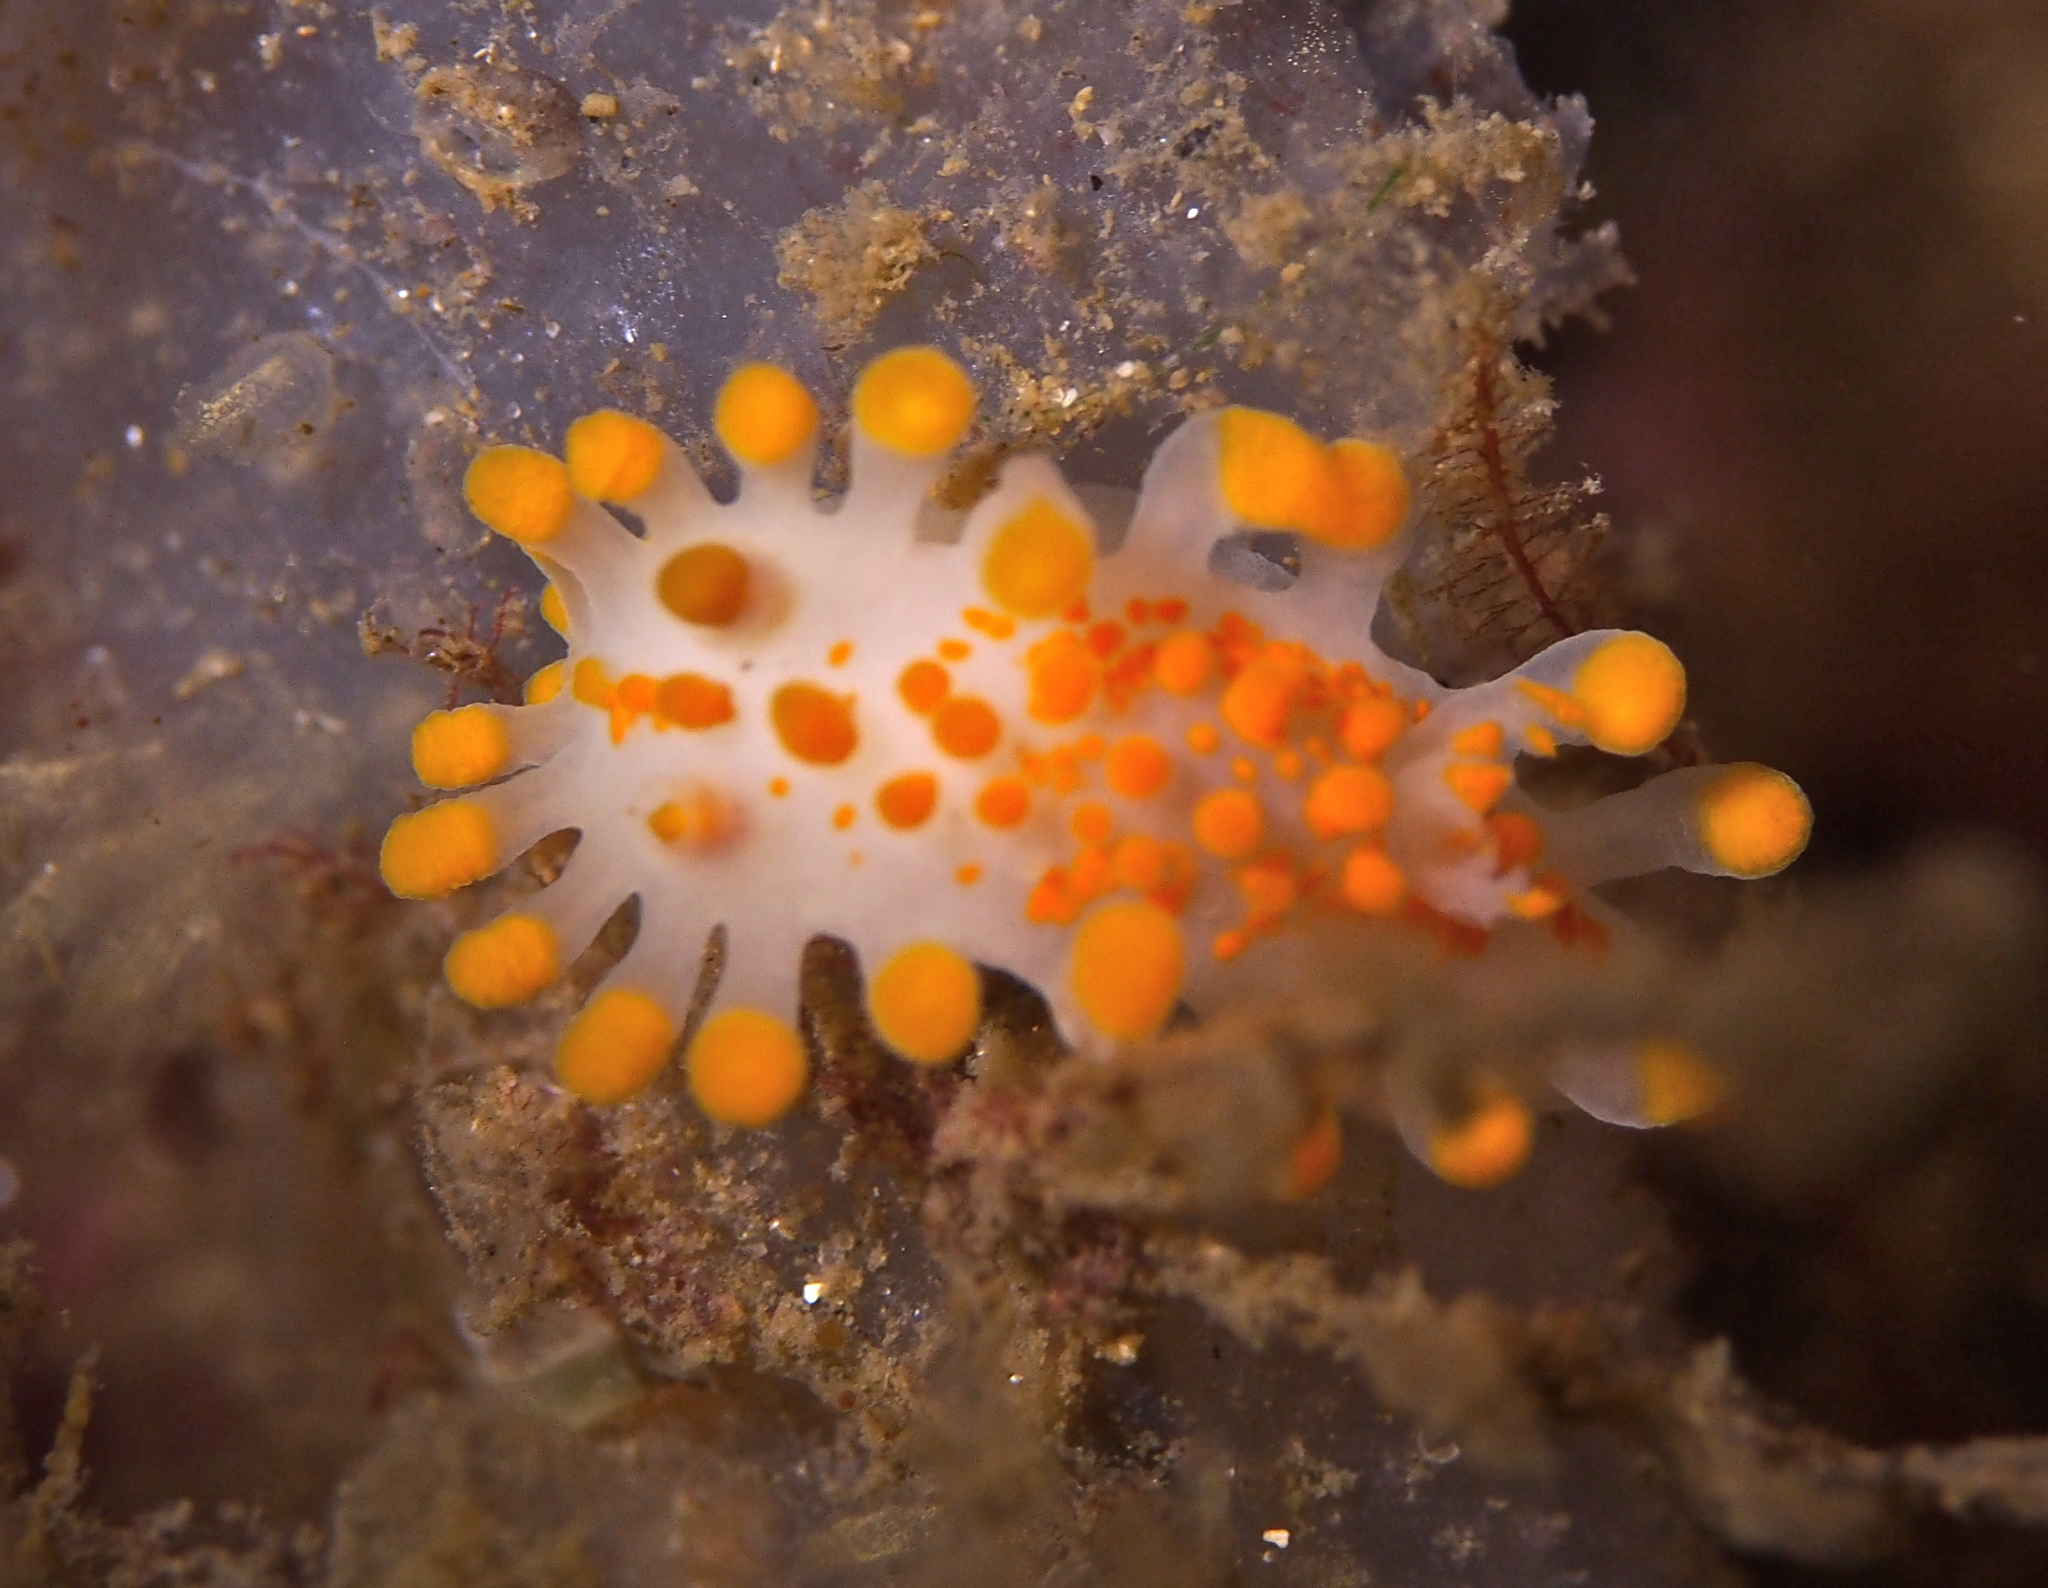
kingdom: Animalia
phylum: Mollusca
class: Gastropoda
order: Nudibranchia
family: Polyceridae
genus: Limacia
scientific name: Limacia clavigera
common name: Orange-clubbed sea slug
